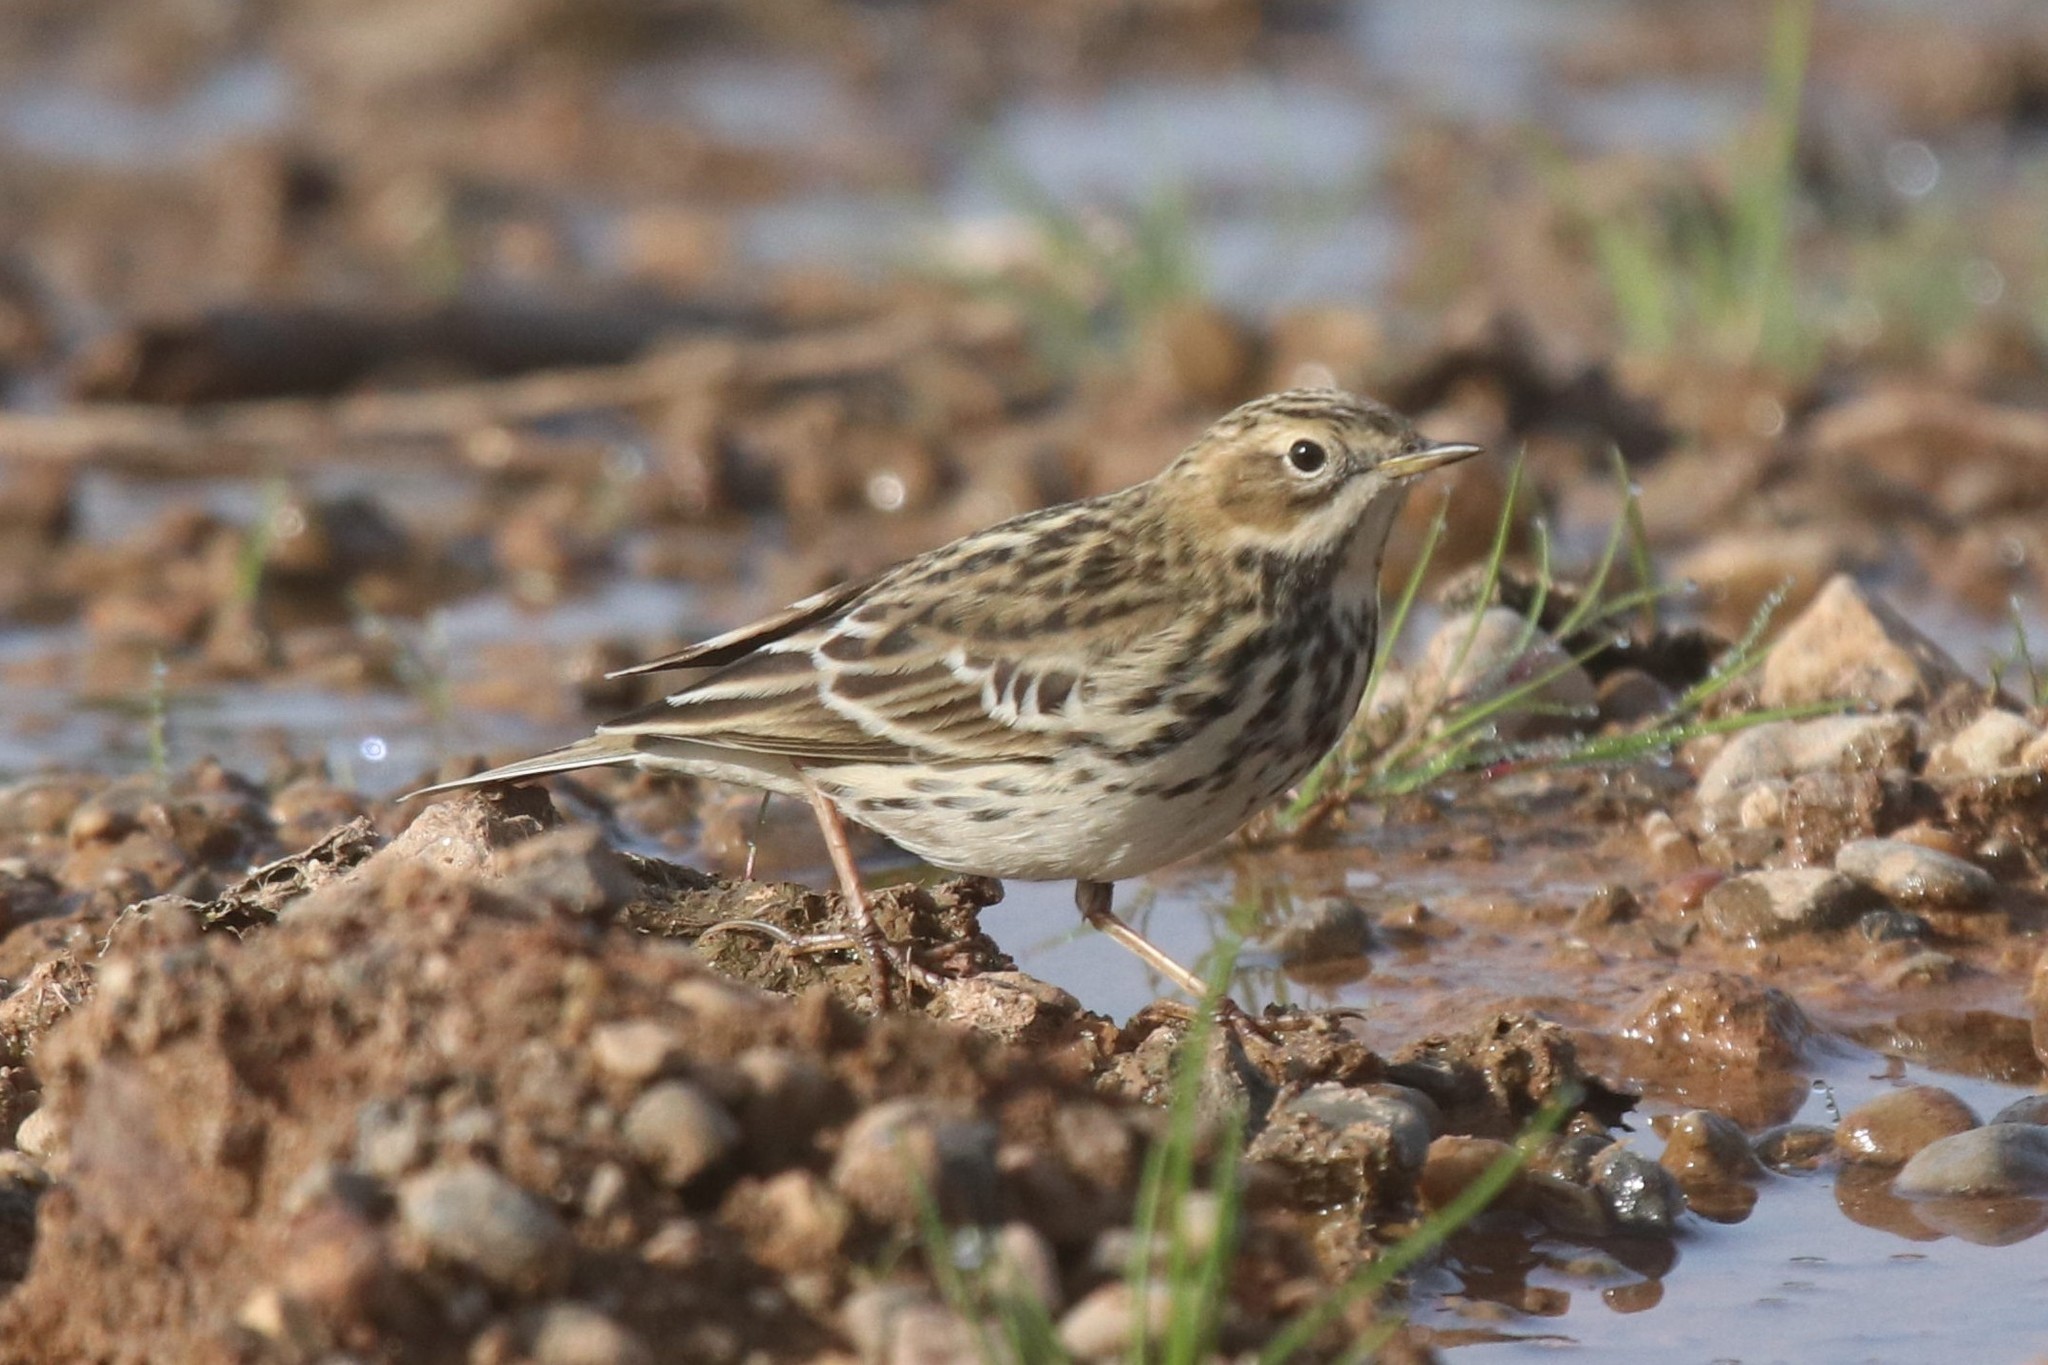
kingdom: Animalia
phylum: Chordata
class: Aves
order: Passeriformes
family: Motacillidae
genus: Anthus
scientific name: Anthus cervinus
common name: Red-throated pipit
